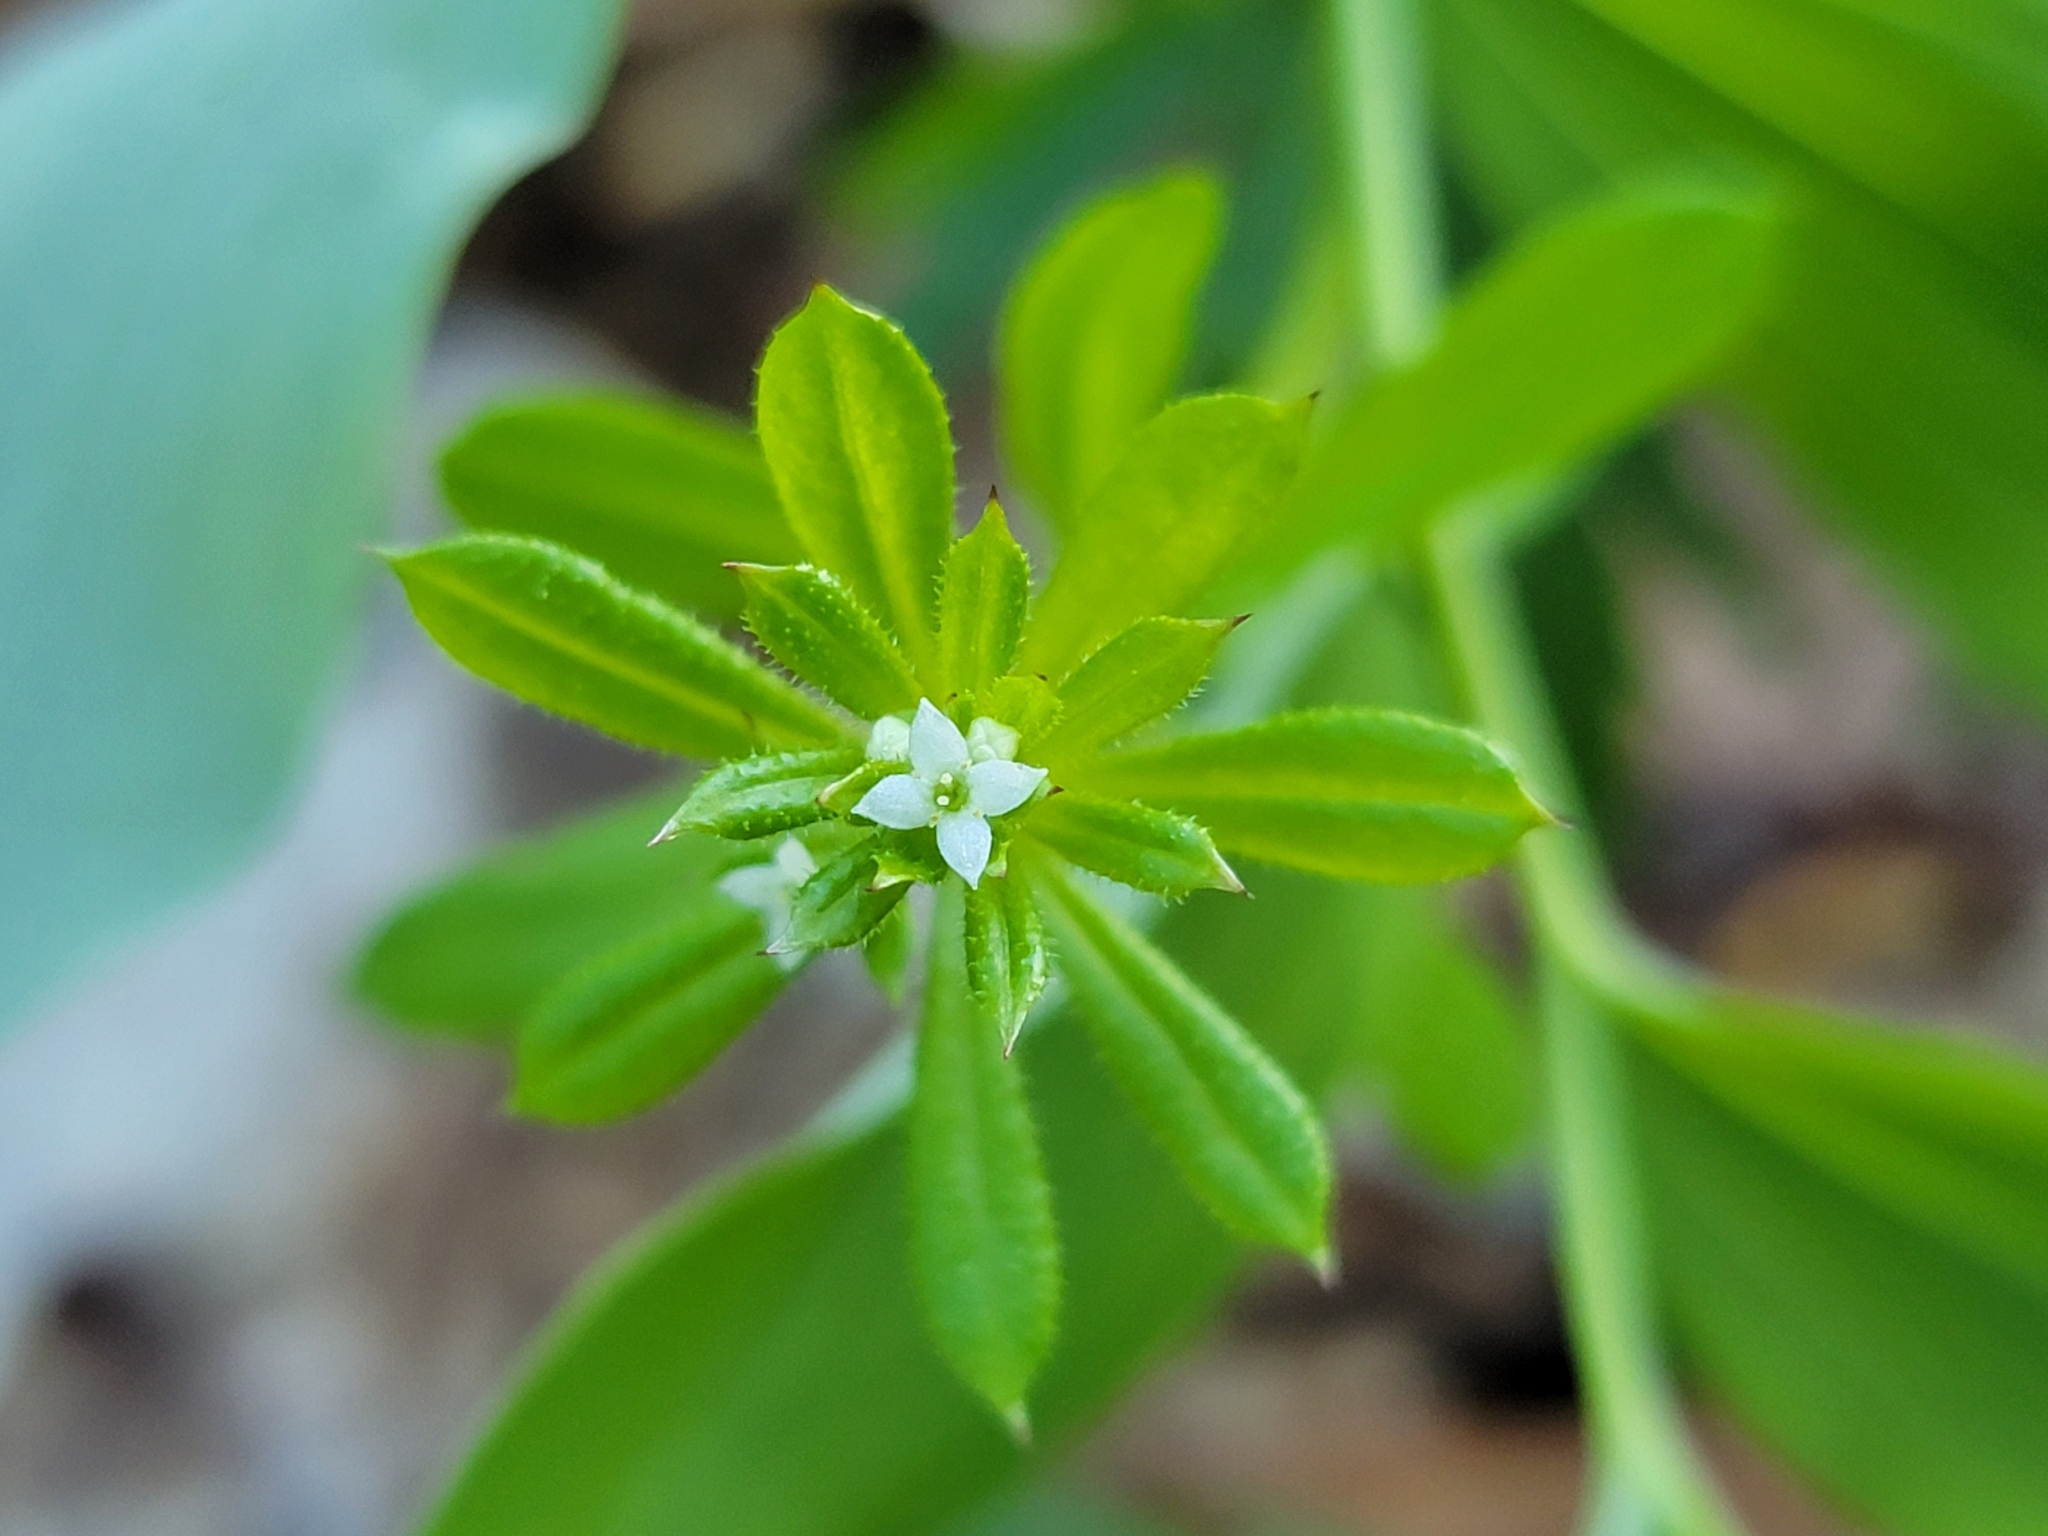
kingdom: Plantae
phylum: Tracheophyta
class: Magnoliopsida
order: Gentianales
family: Rubiaceae
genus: Galium
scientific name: Galium aparine
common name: Cleavers
